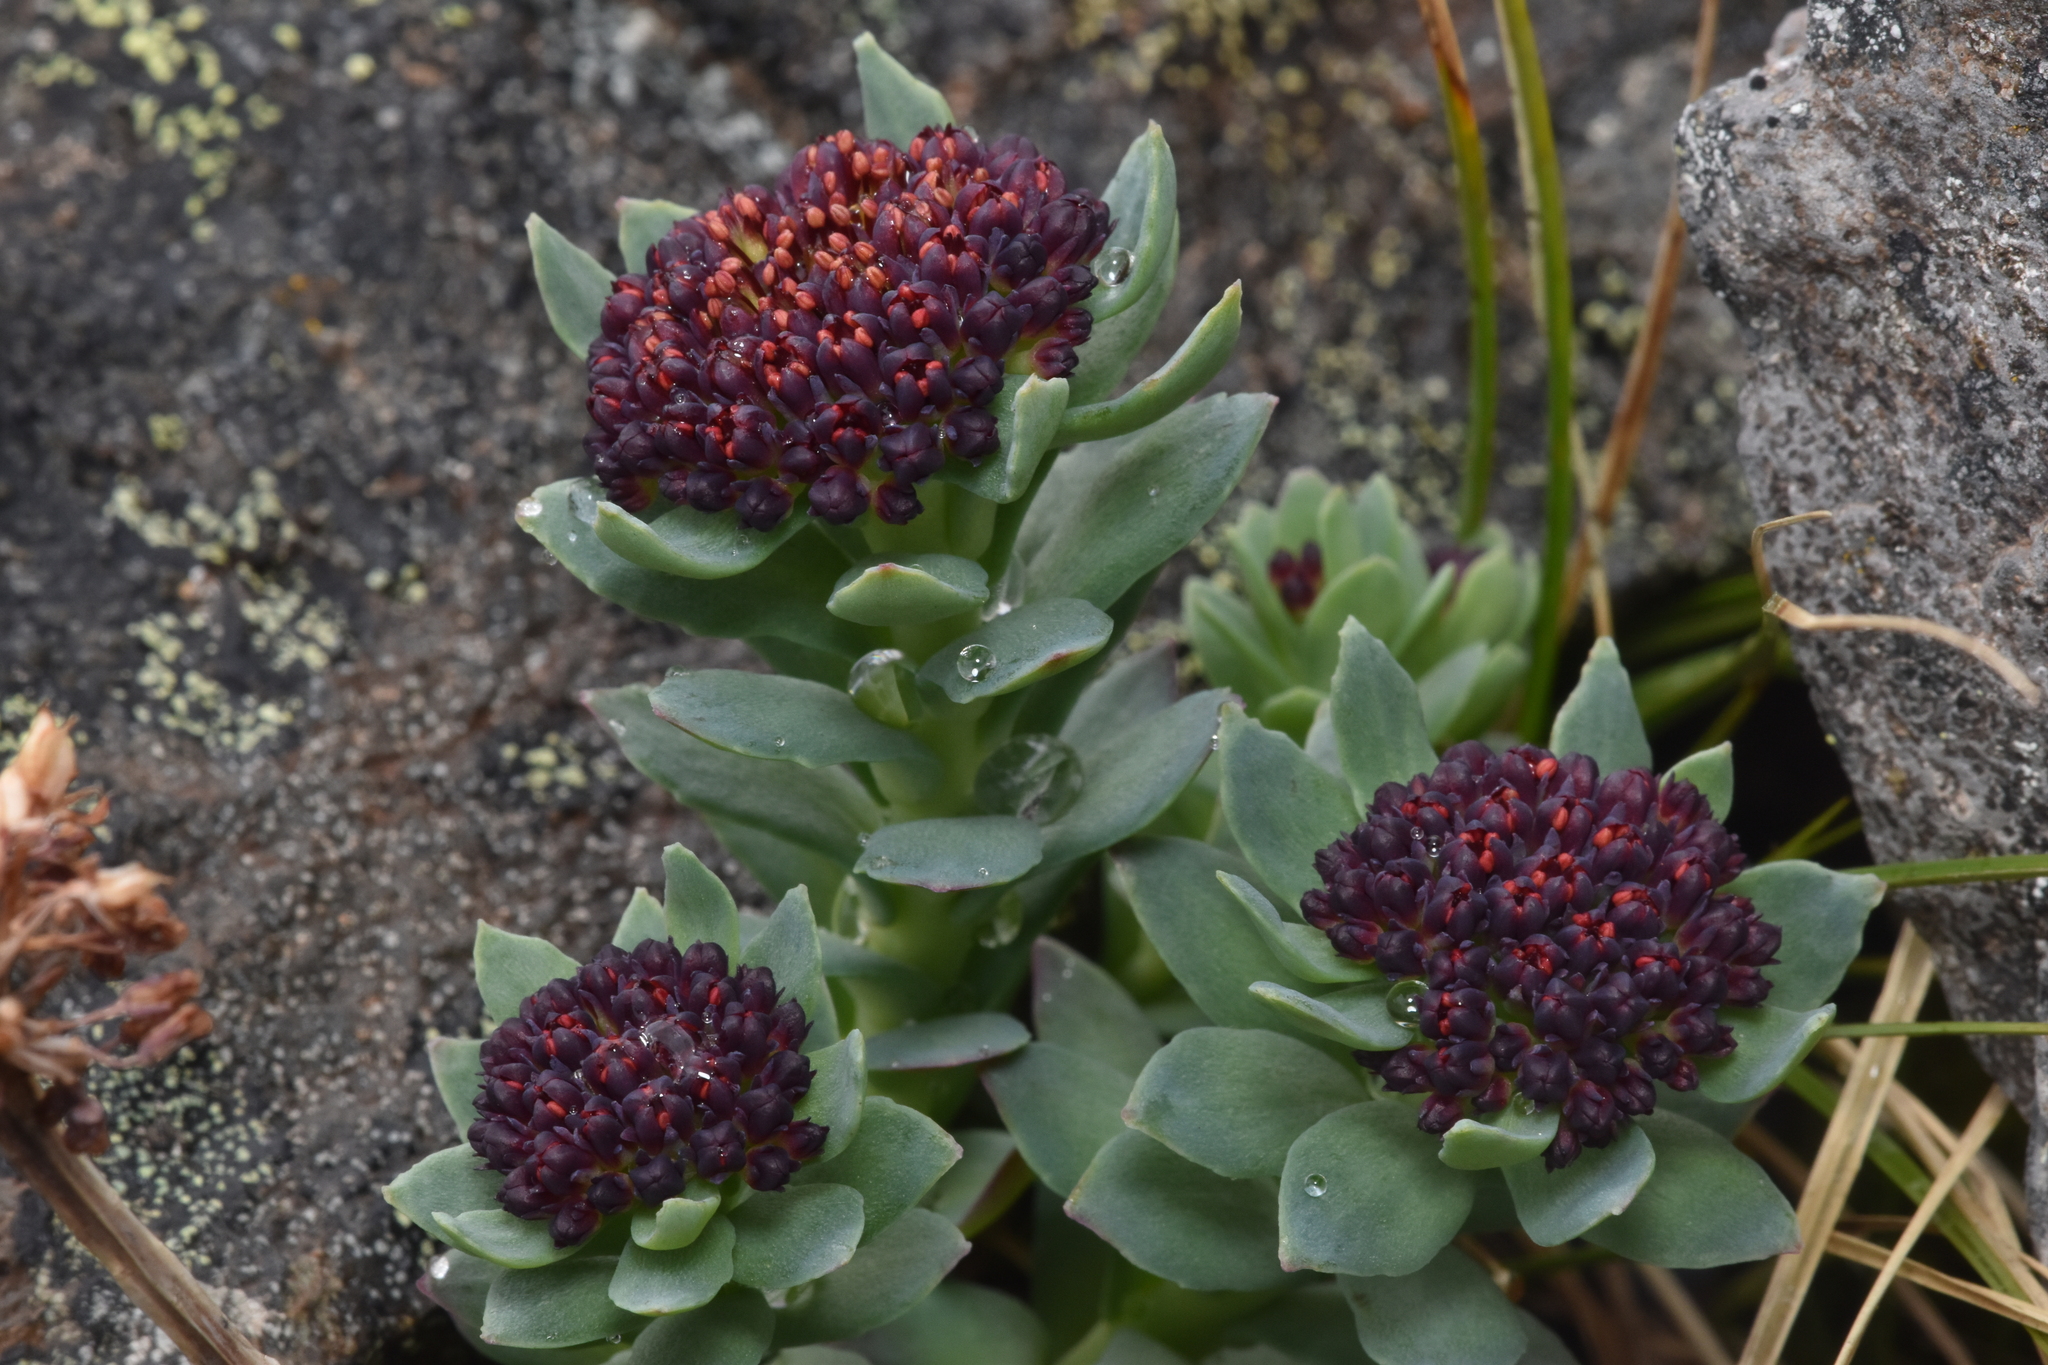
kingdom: Plantae
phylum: Tracheophyta
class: Magnoliopsida
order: Saxifragales
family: Crassulaceae
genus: Rhodiola
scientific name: Rhodiola integrifolia
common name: Western roseroot
